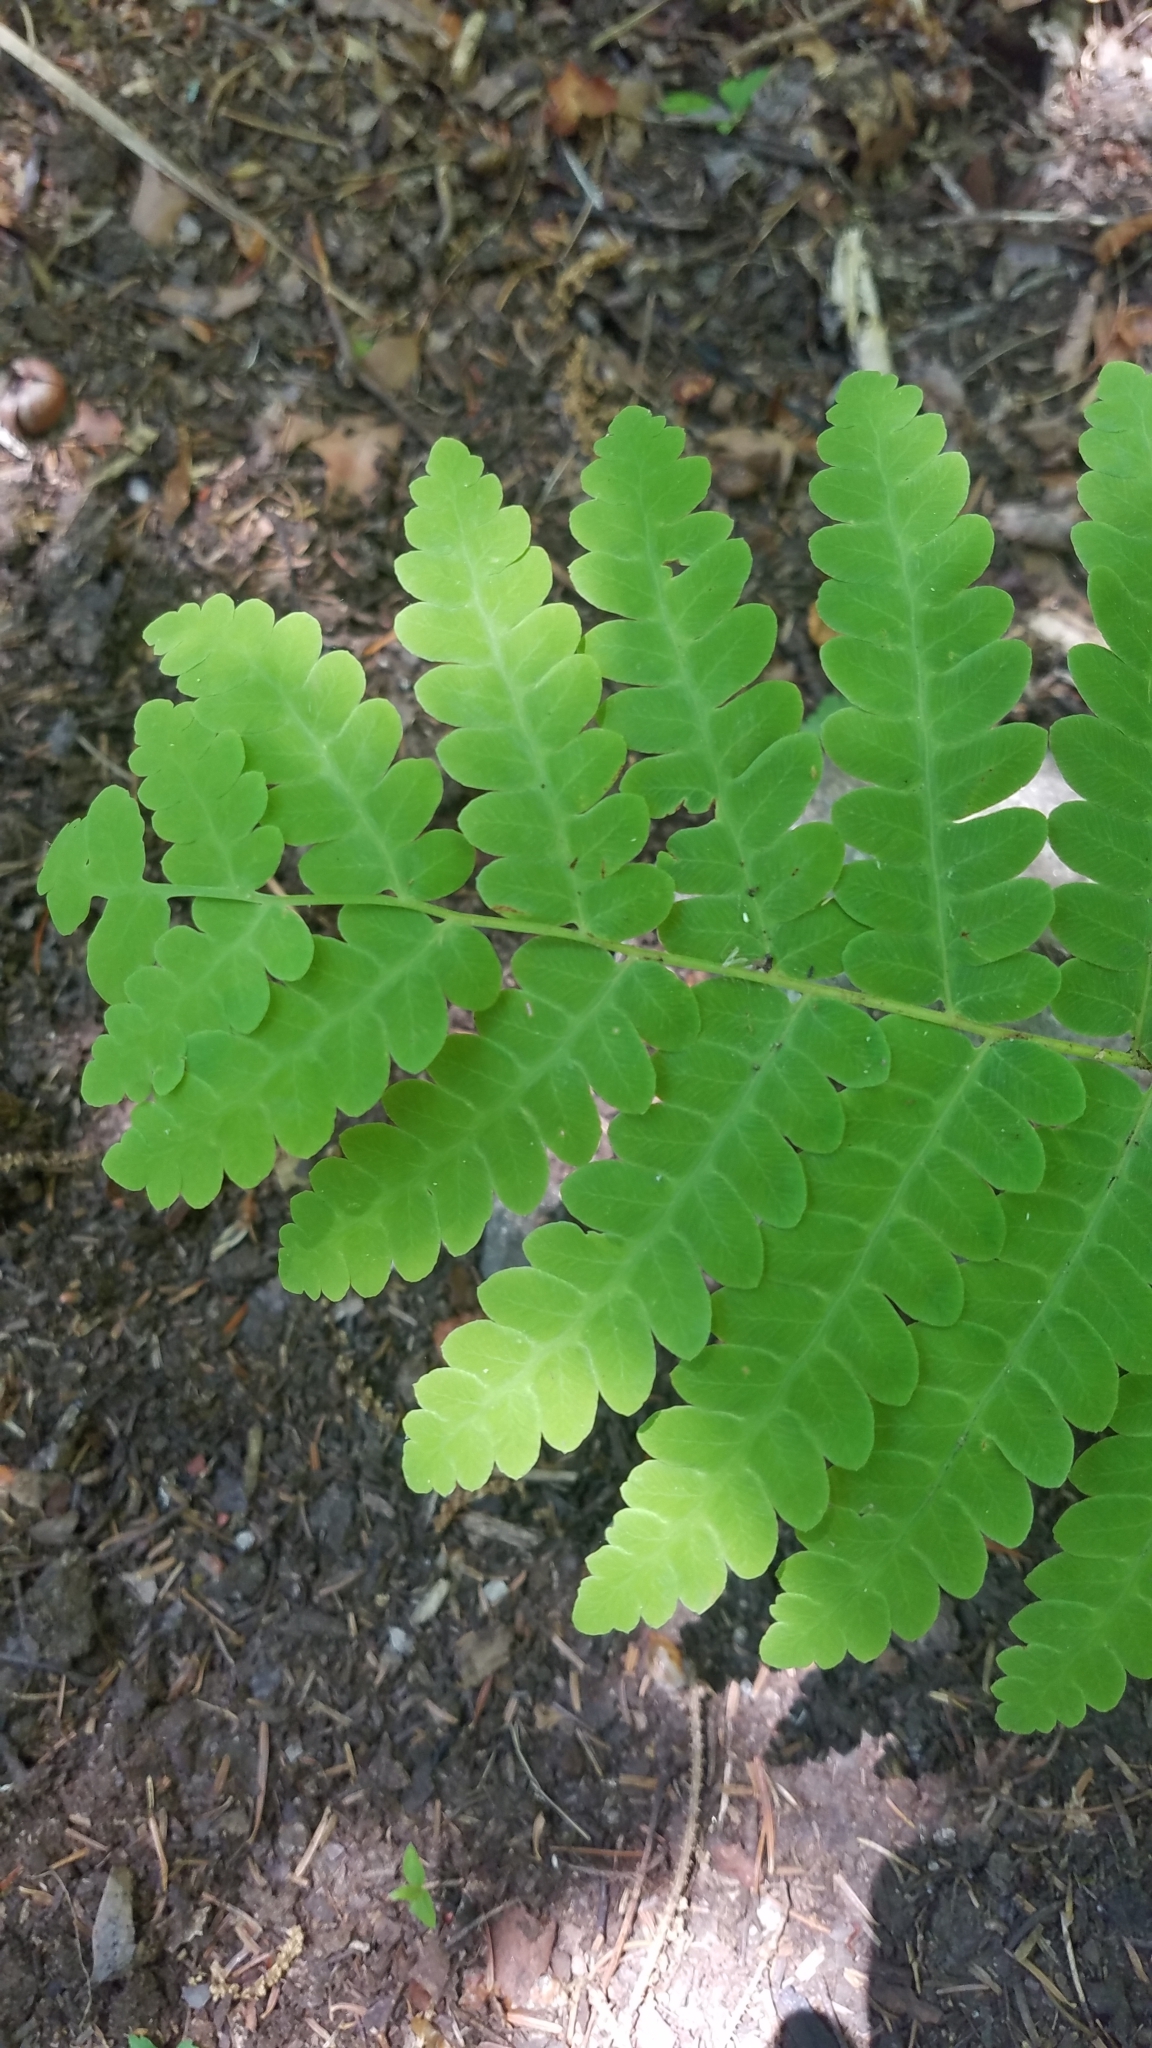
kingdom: Plantae
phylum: Tracheophyta
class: Polypodiopsida
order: Osmundales
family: Osmundaceae
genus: Claytosmunda
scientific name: Claytosmunda claytoniana
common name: Clayton's fern
